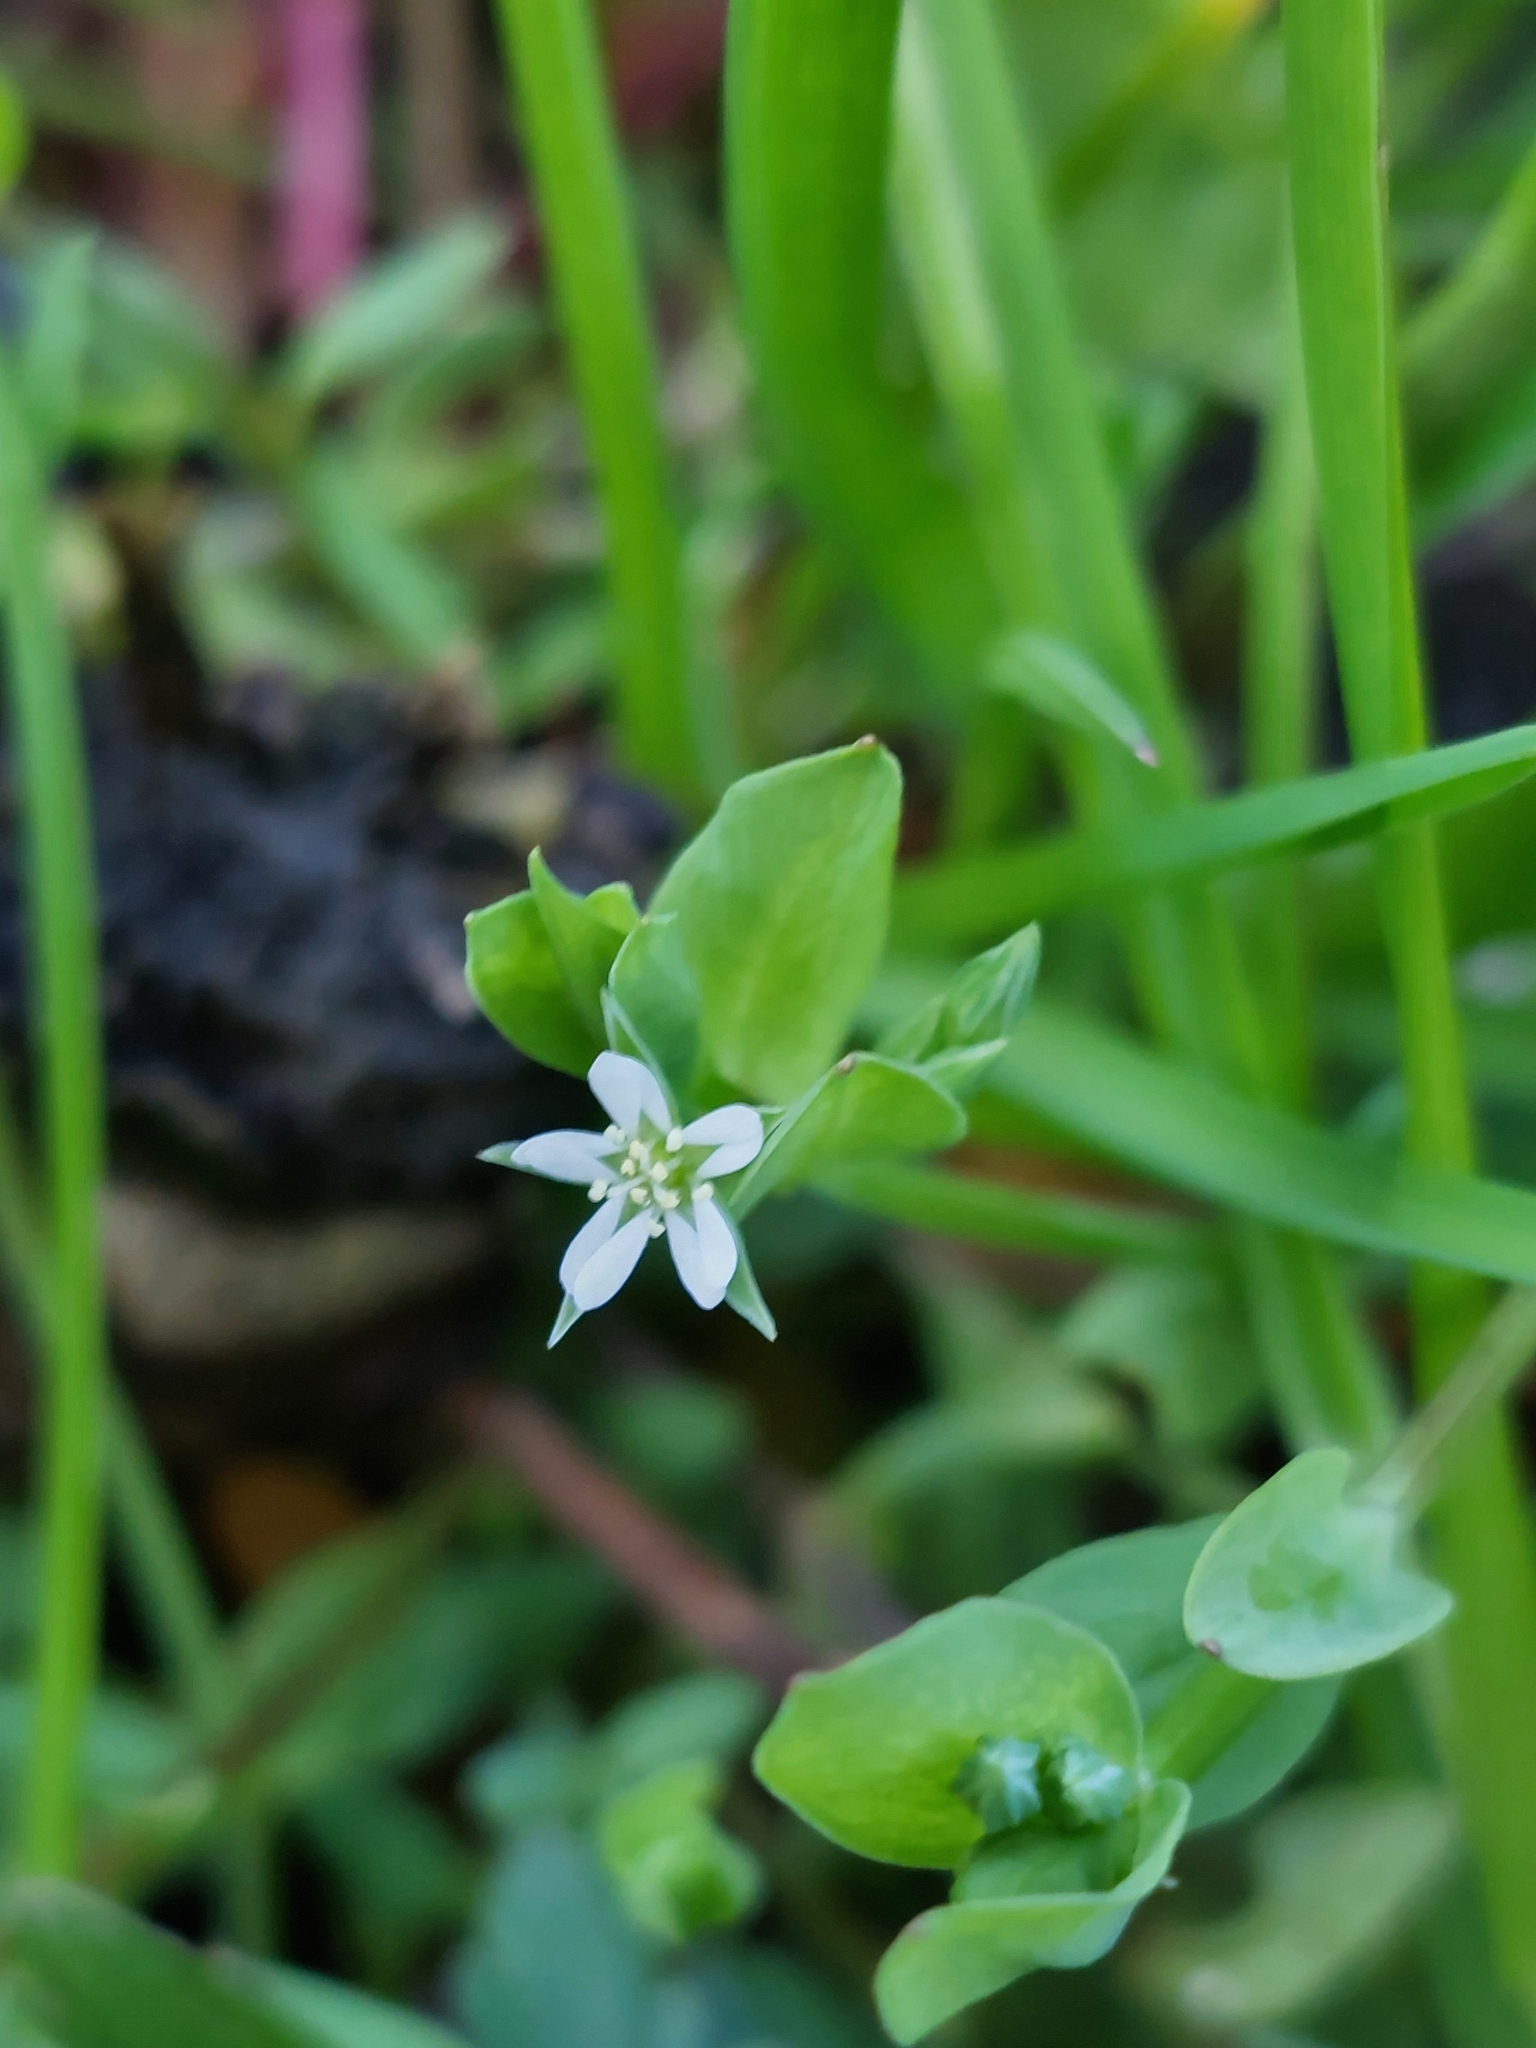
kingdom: Plantae
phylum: Tracheophyta
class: Magnoliopsida
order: Caryophyllales
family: Caryophyllaceae
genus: Stellaria
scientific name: Stellaria alsine
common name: Bog stitchwort
